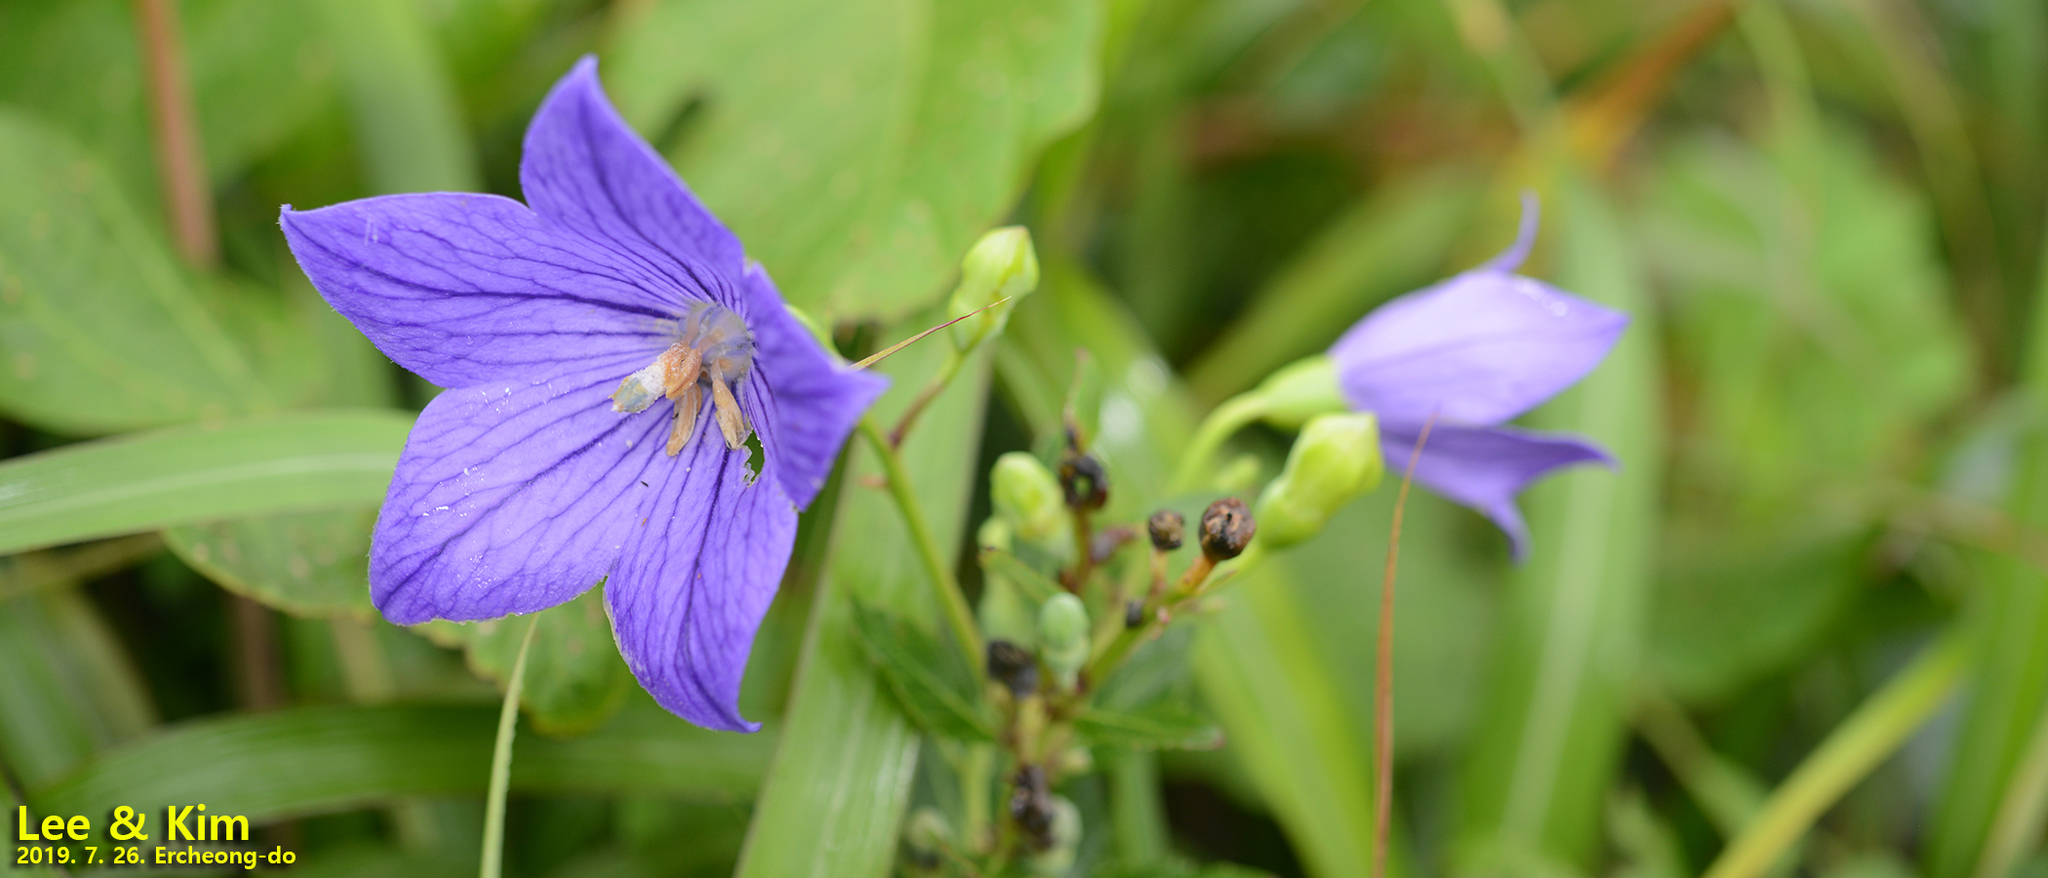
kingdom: Plantae
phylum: Tracheophyta
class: Magnoliopsida
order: Asterales
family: Campanulaceae
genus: Platycodon
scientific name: Platycodon grandiflorus
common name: Balloon-flower
